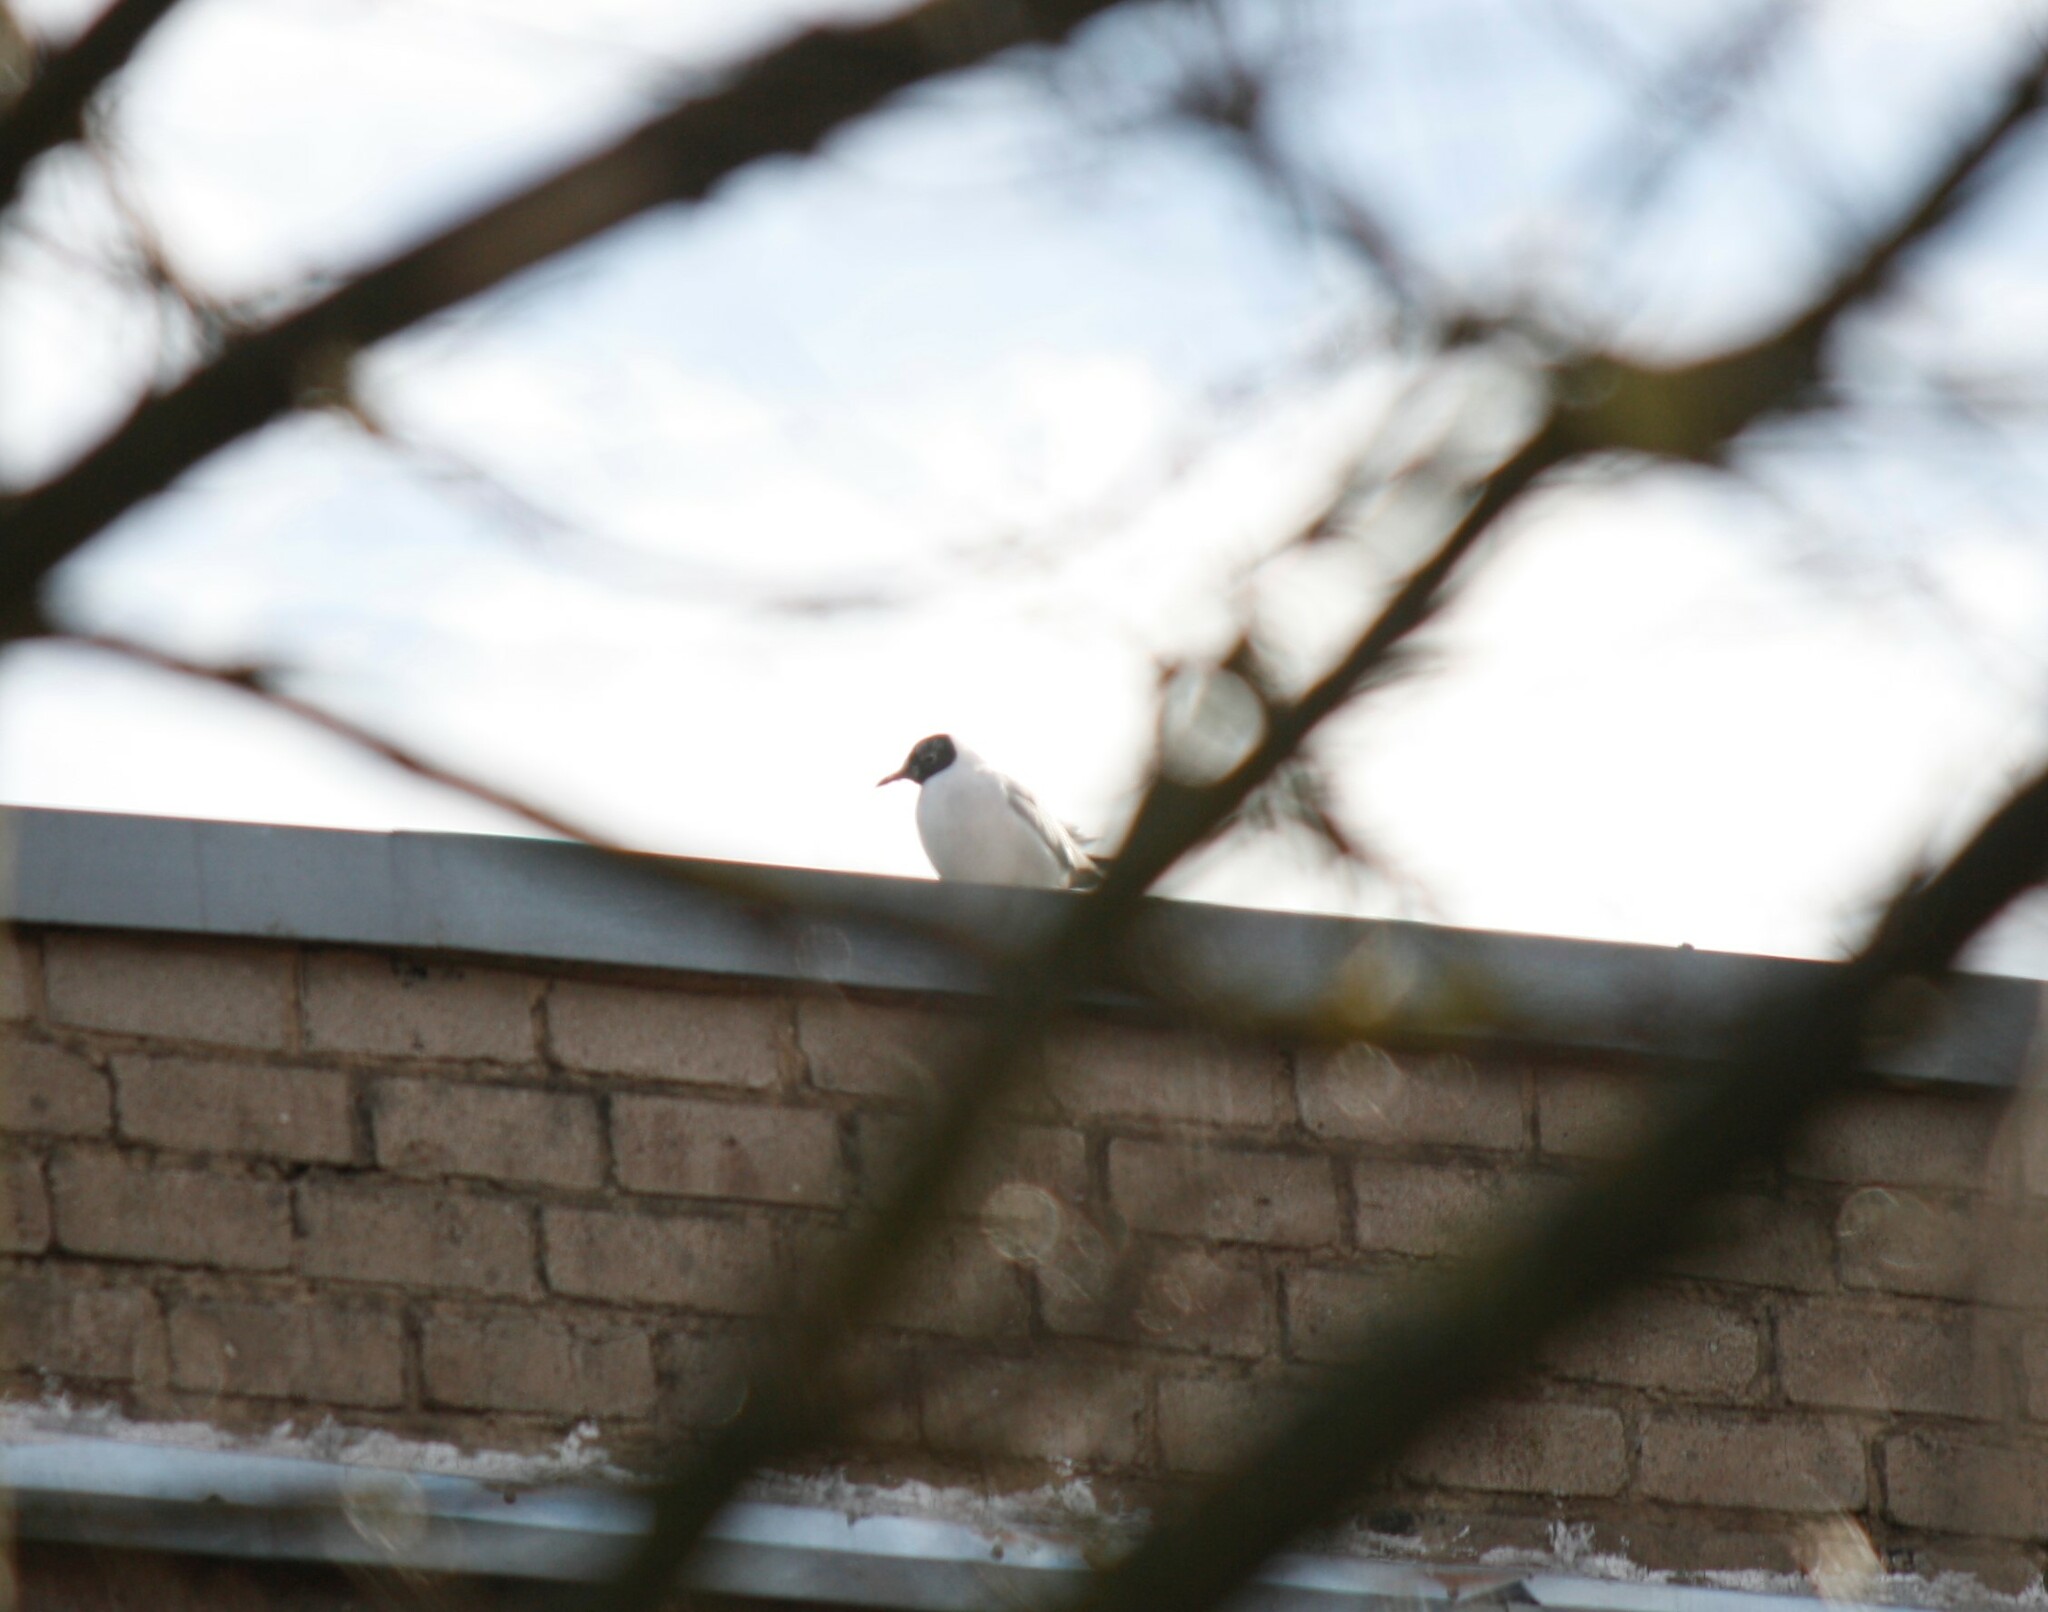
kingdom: Animalia
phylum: Chordata
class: Aves
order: Charadriiformes
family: Laridae
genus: Chroicocephalus
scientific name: Chroicocephalus ridibundus
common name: Black-headed gull
